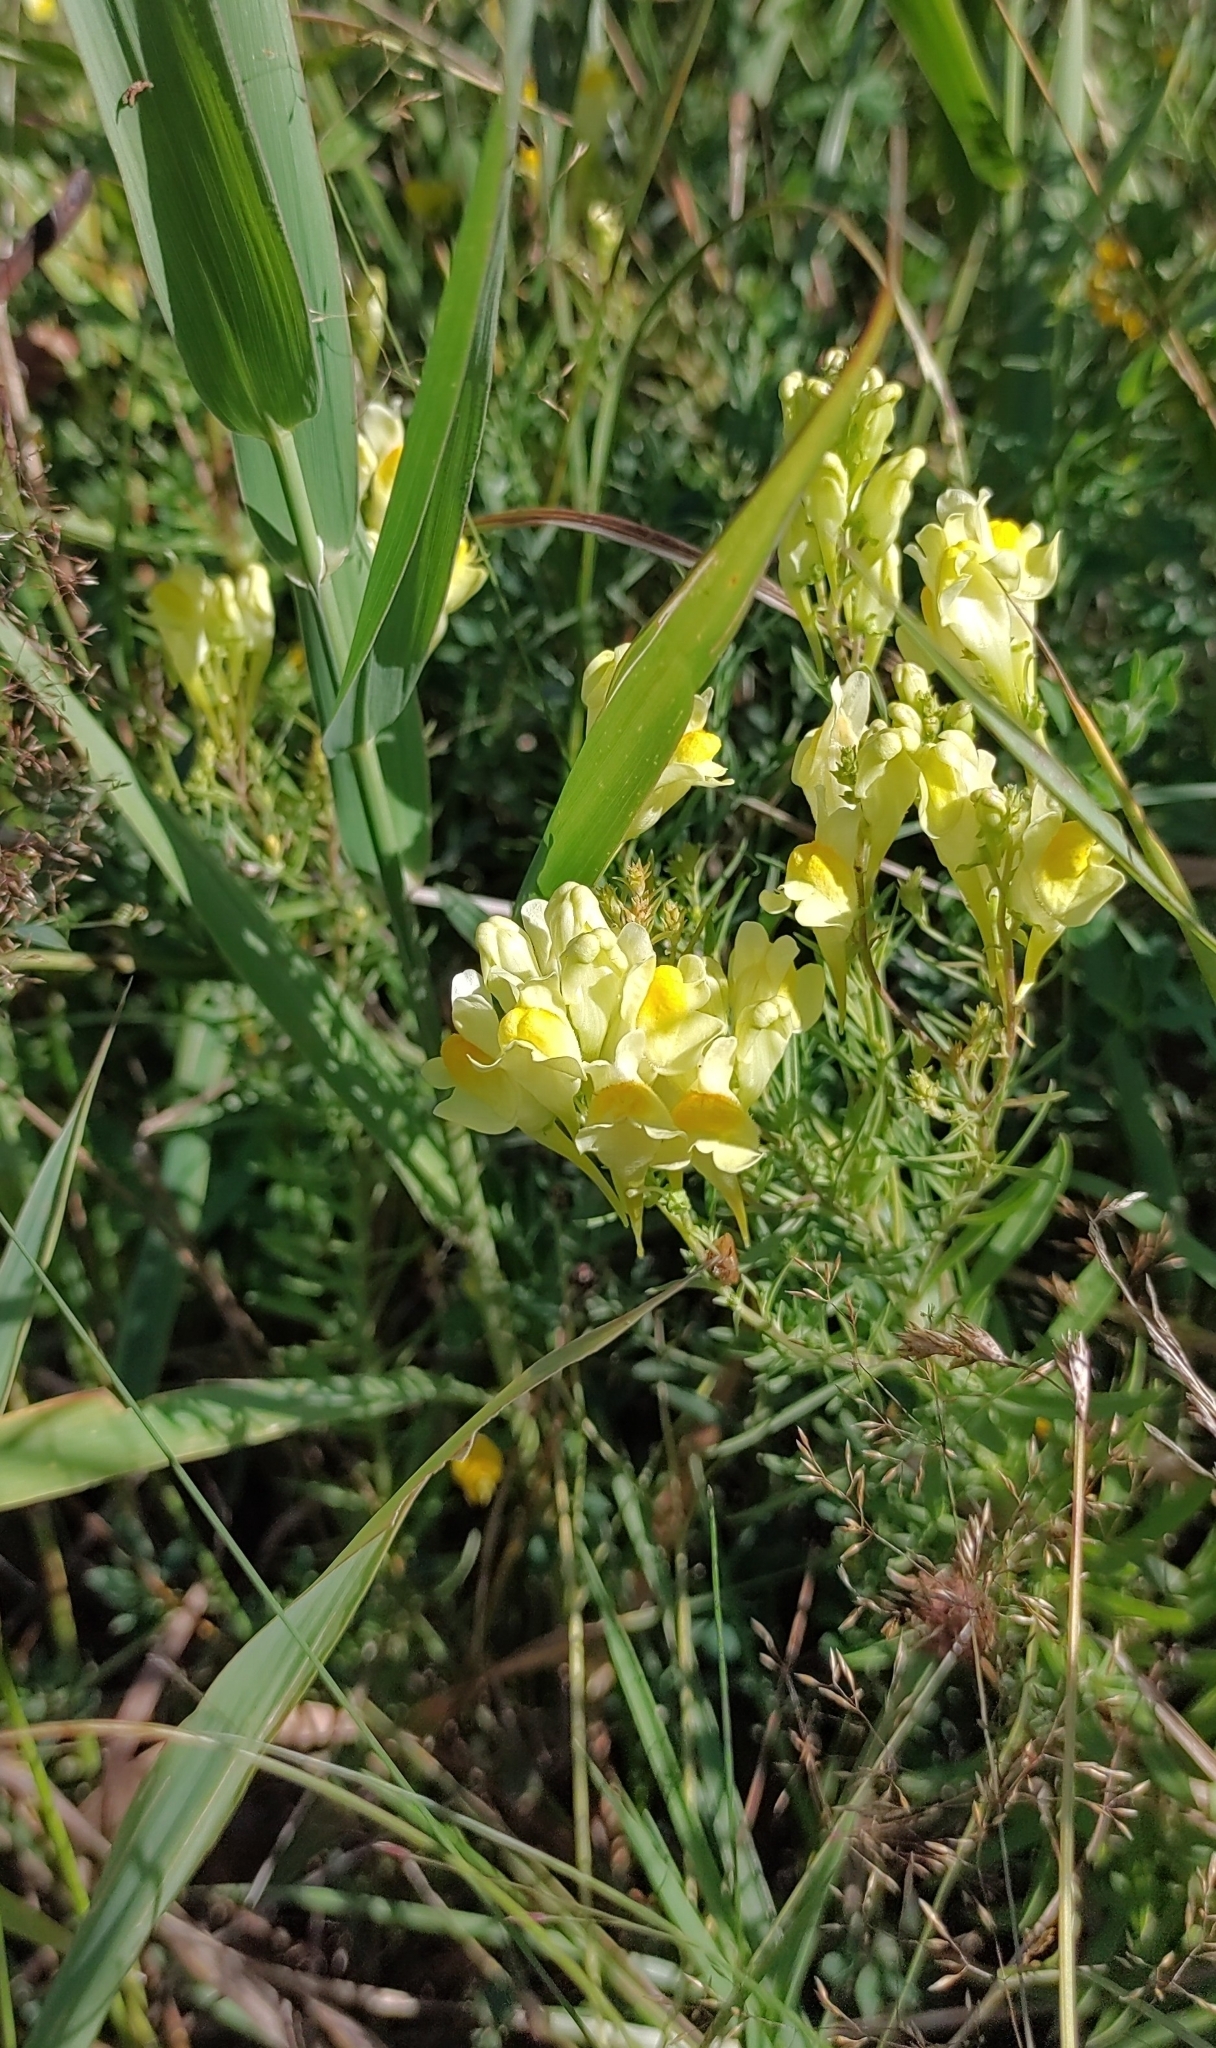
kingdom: Plantae
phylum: Tracheophyta
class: Magnoliopsida
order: Lamiales
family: Plantaginaceae
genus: Linaria
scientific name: Linaria vulgaris
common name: Butter and eggs
